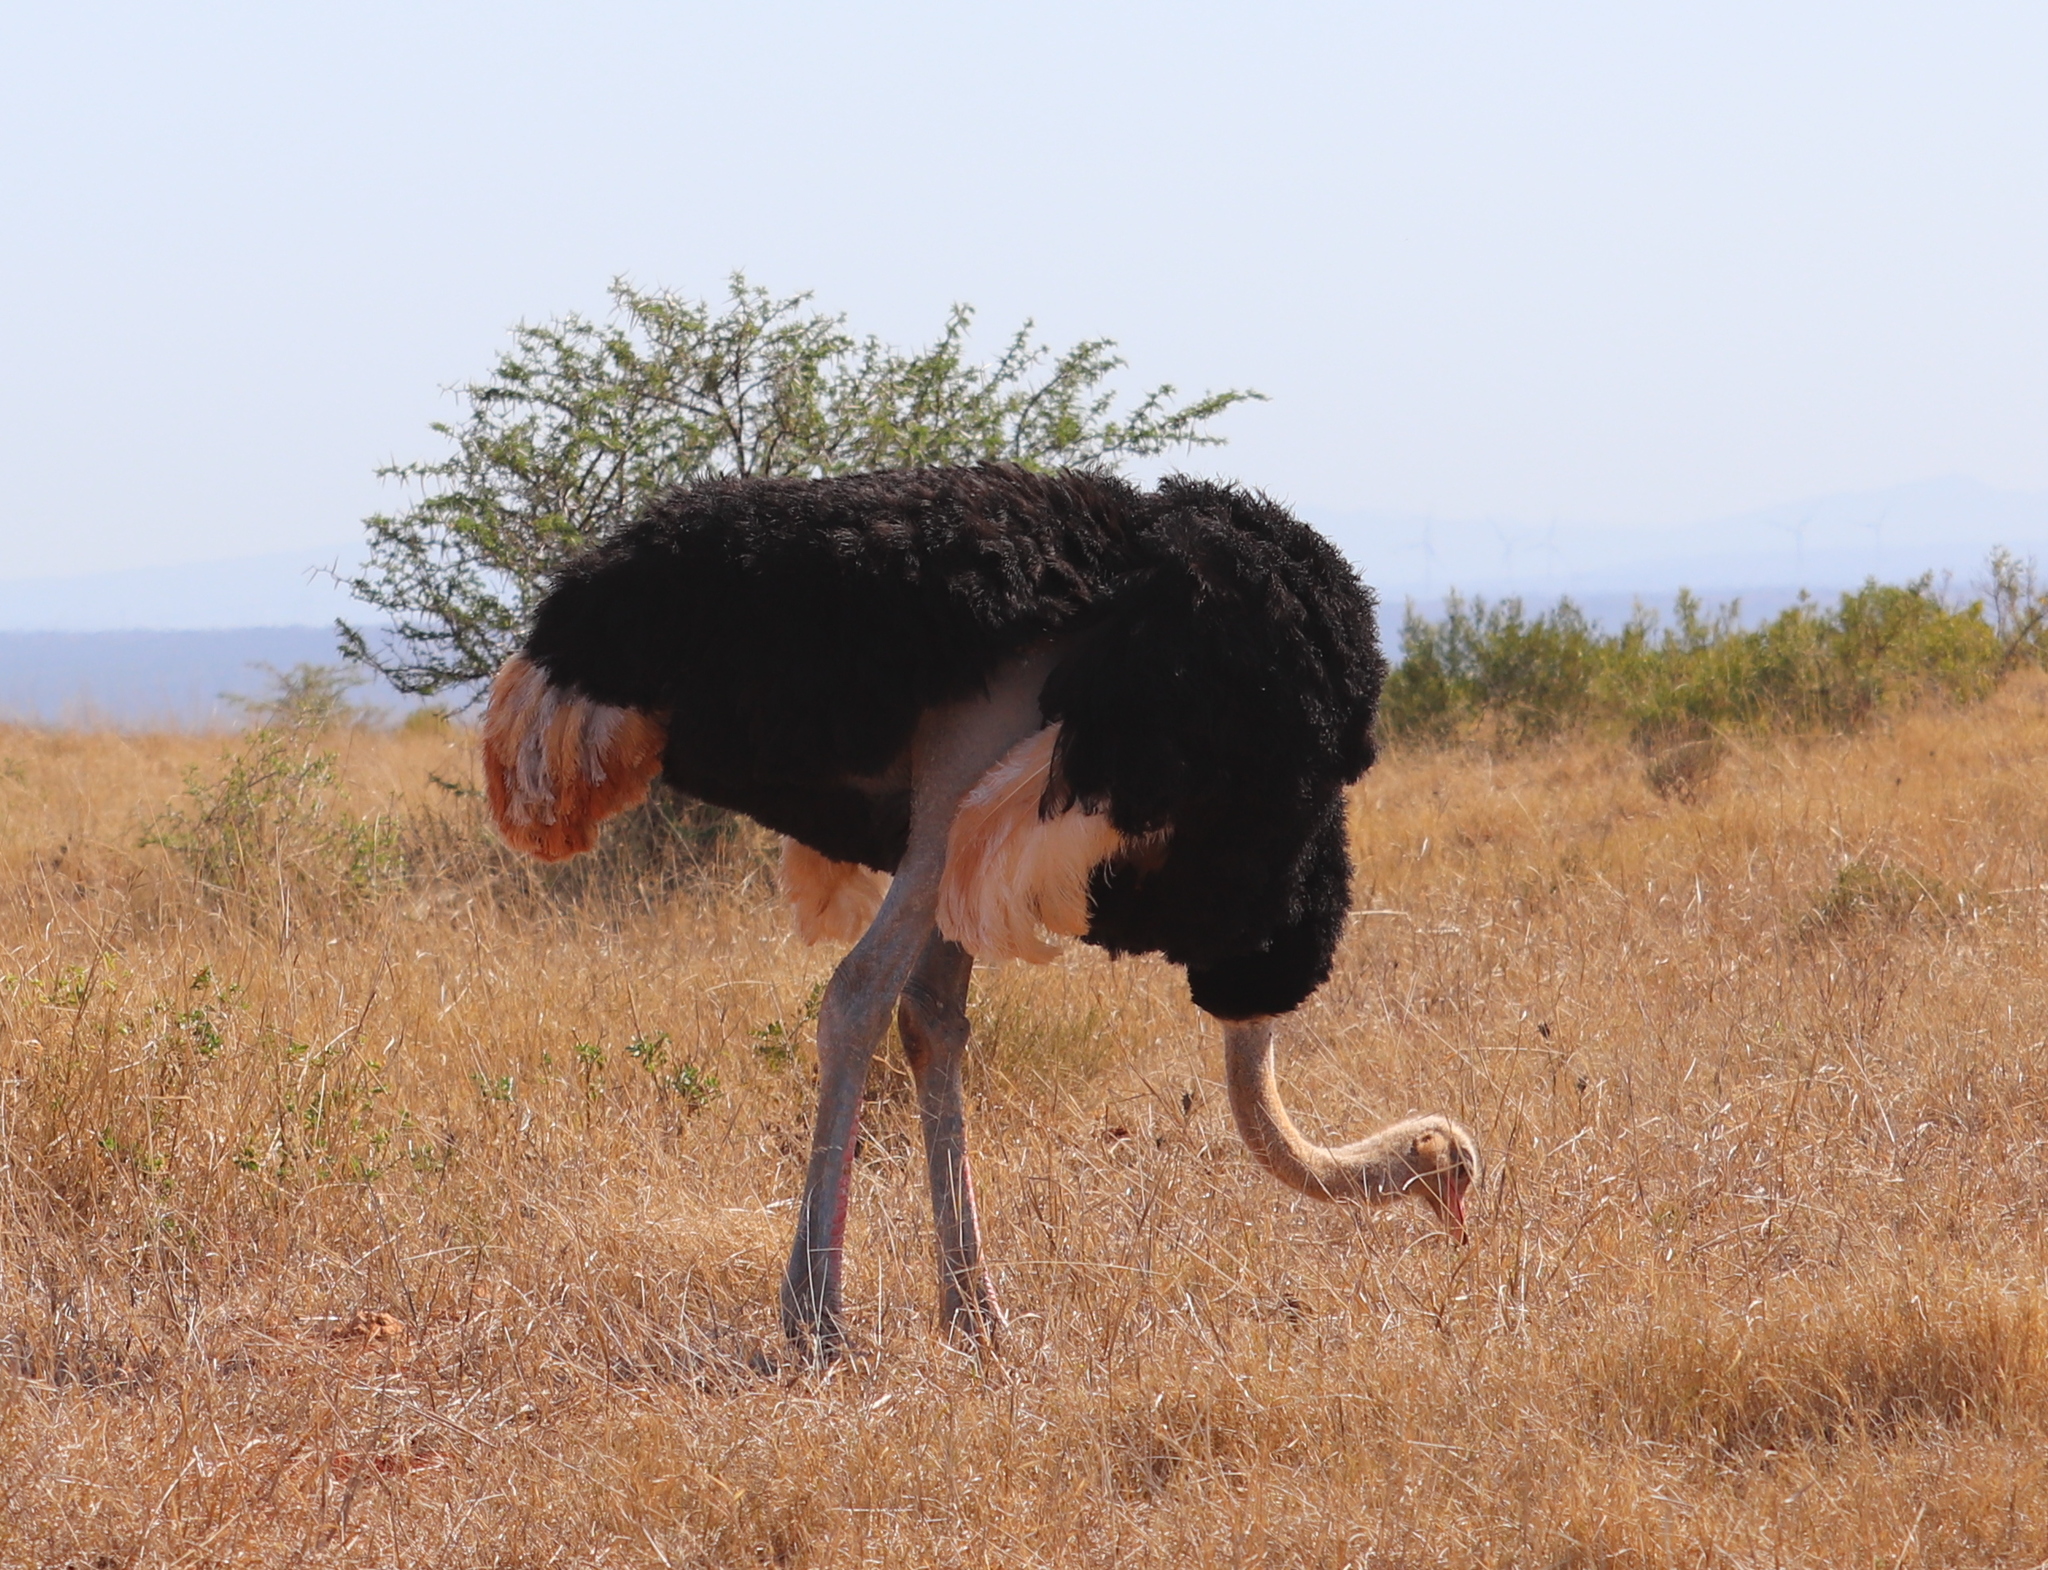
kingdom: Animalia
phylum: Chordata
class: Aves
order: Struthioniformes
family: Struthionidae
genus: Struthio
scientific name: Struthio camelus
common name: Common ostrich
